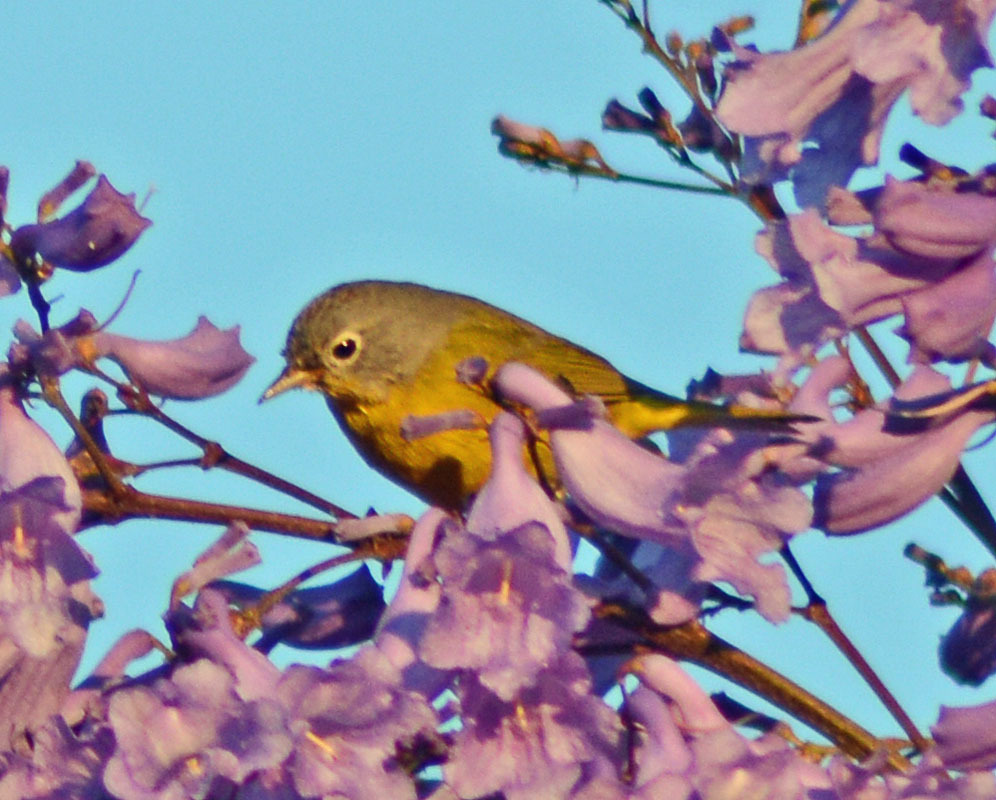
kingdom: Animalia
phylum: Chordata
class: Aves
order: Passeriformes
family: Parulidae
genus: Leiothlypis
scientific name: Leiothlypis ruficapilla
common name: Nashville warbler
